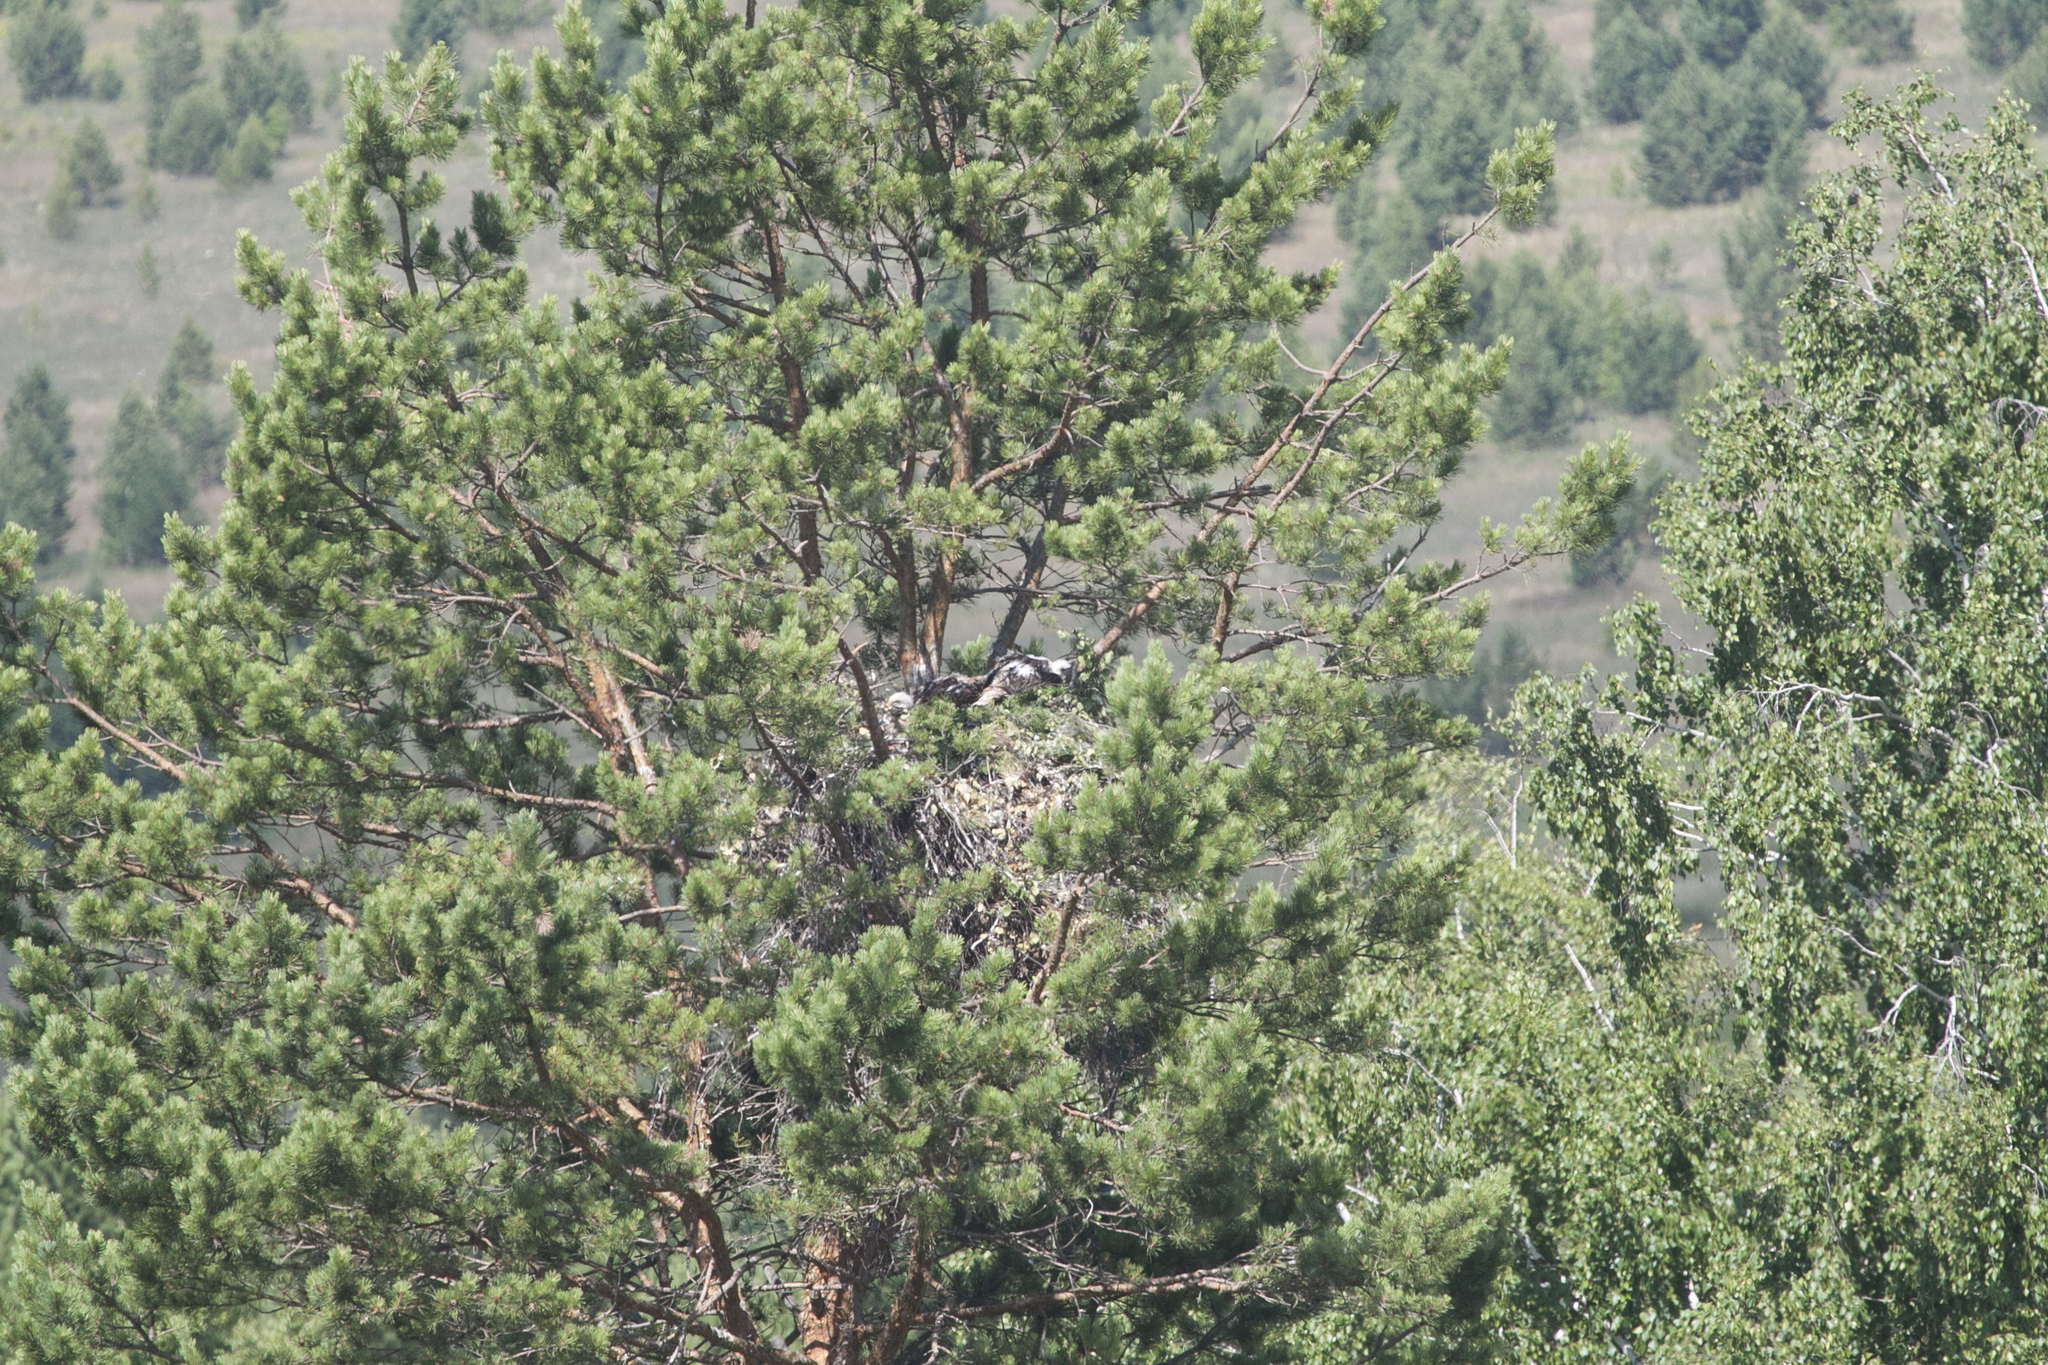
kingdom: Animalia
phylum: Chordata
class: Aves
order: Accipitriformes
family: Accipitridae
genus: Aquila
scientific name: Aquila heliaca
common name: Eastern imperial eagle
